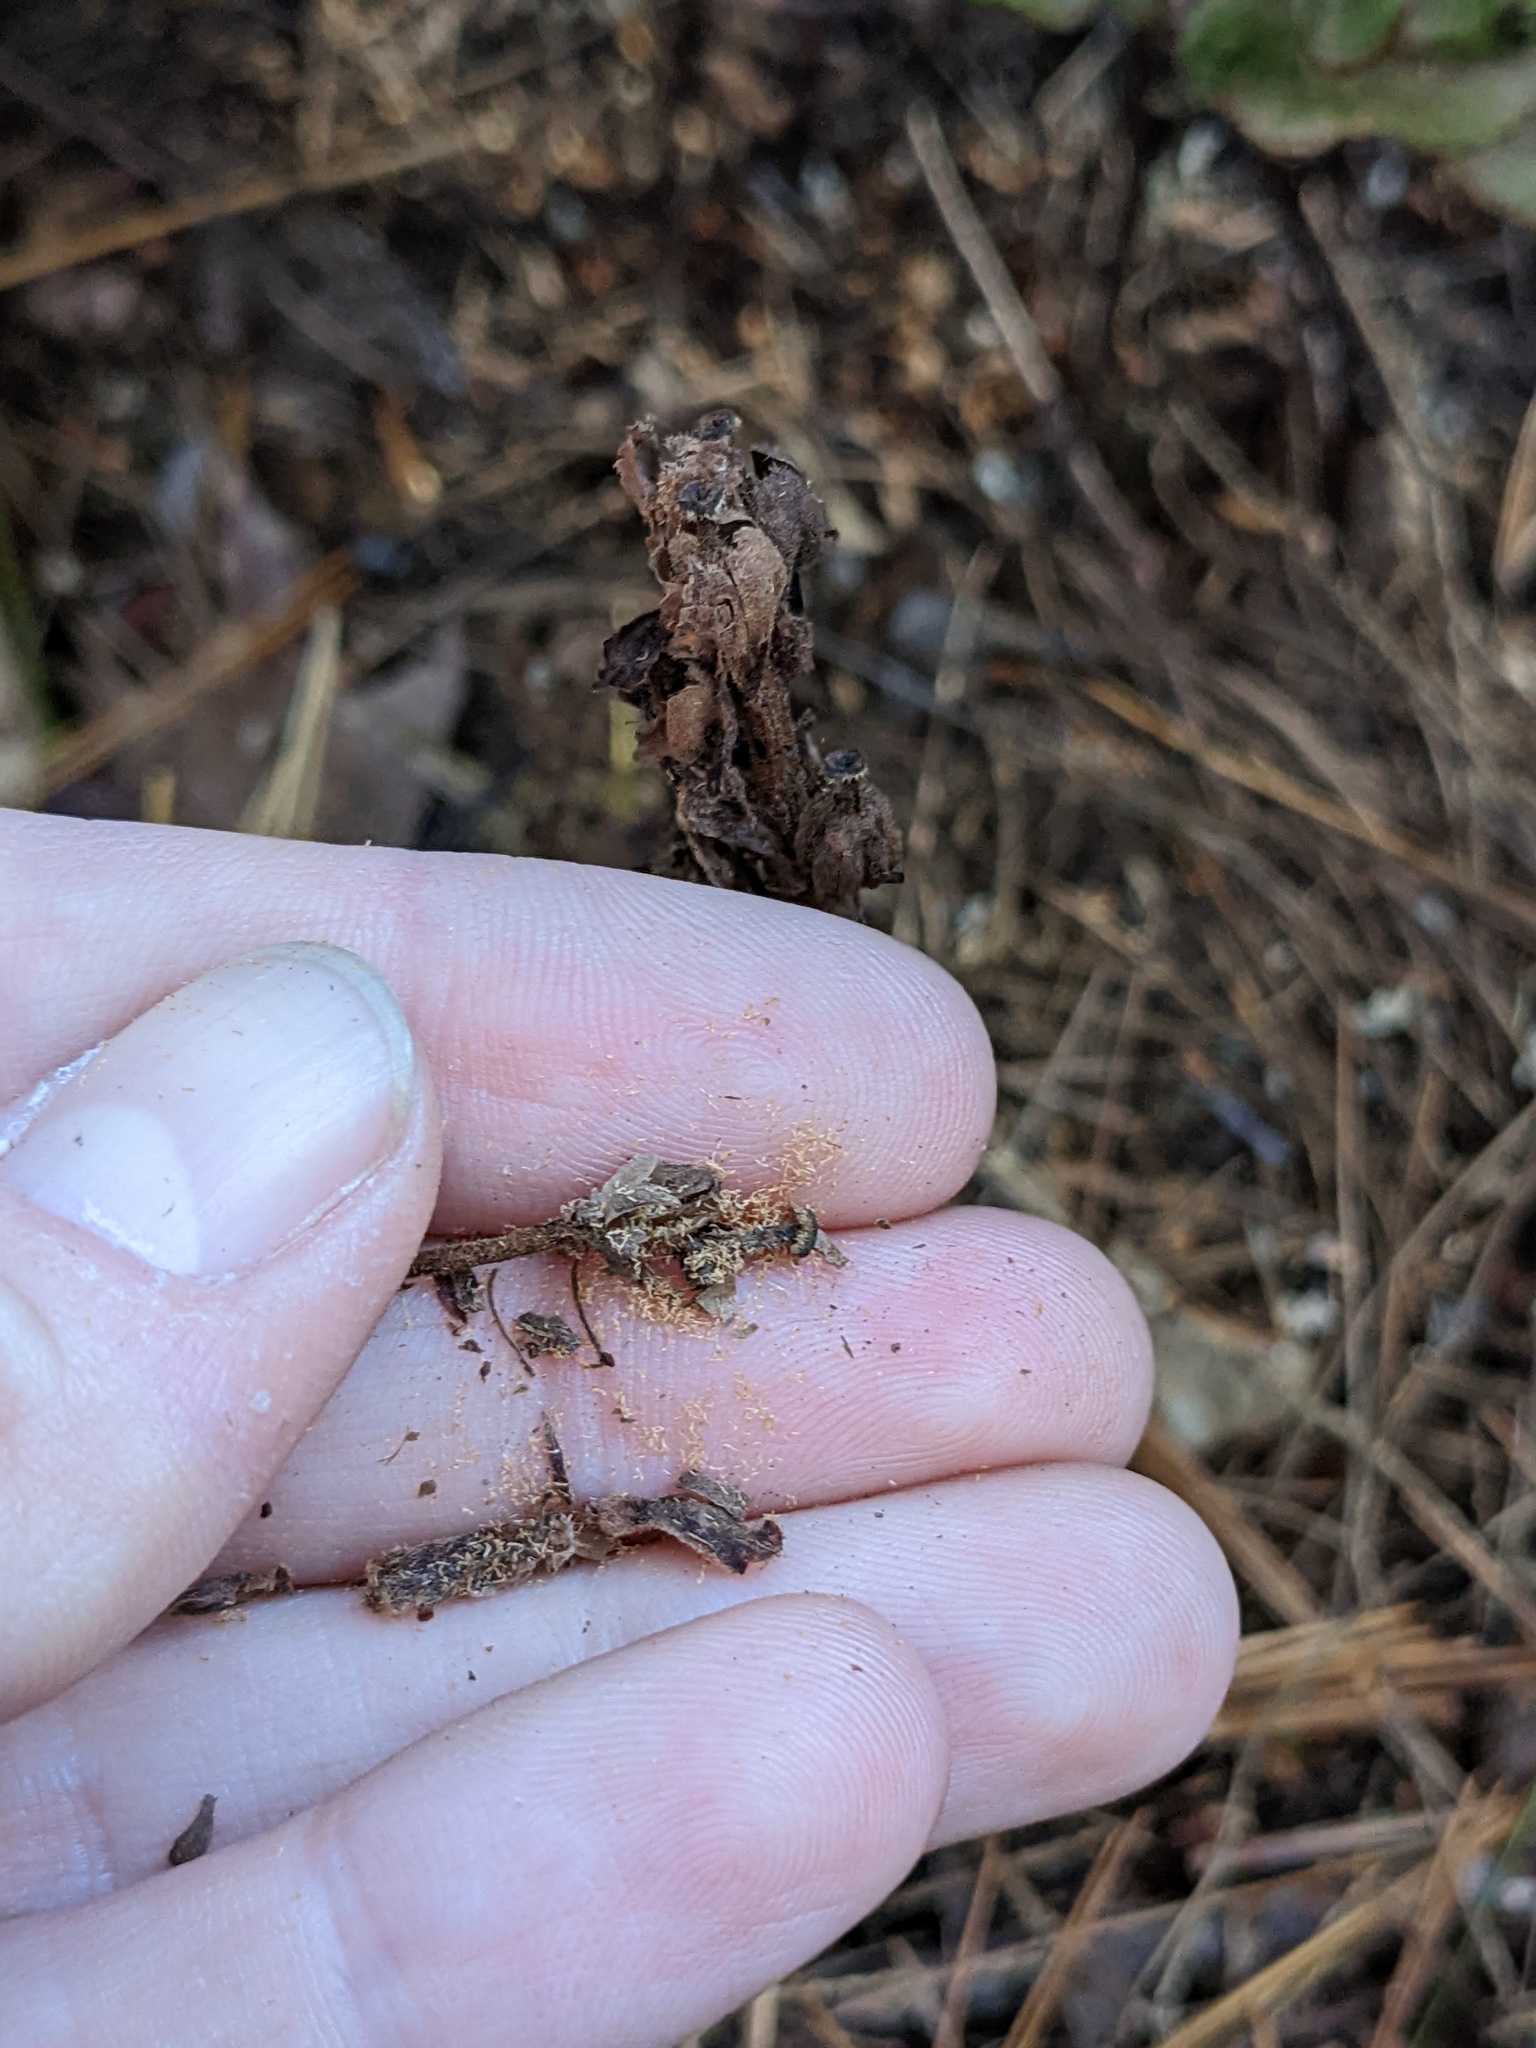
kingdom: Plantae
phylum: Tracheophyta
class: Magnoliopsida
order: Ericales
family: Ericaceae
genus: Hypopitys
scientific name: Hypopitys monotropa
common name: Yellow bird's-nest
